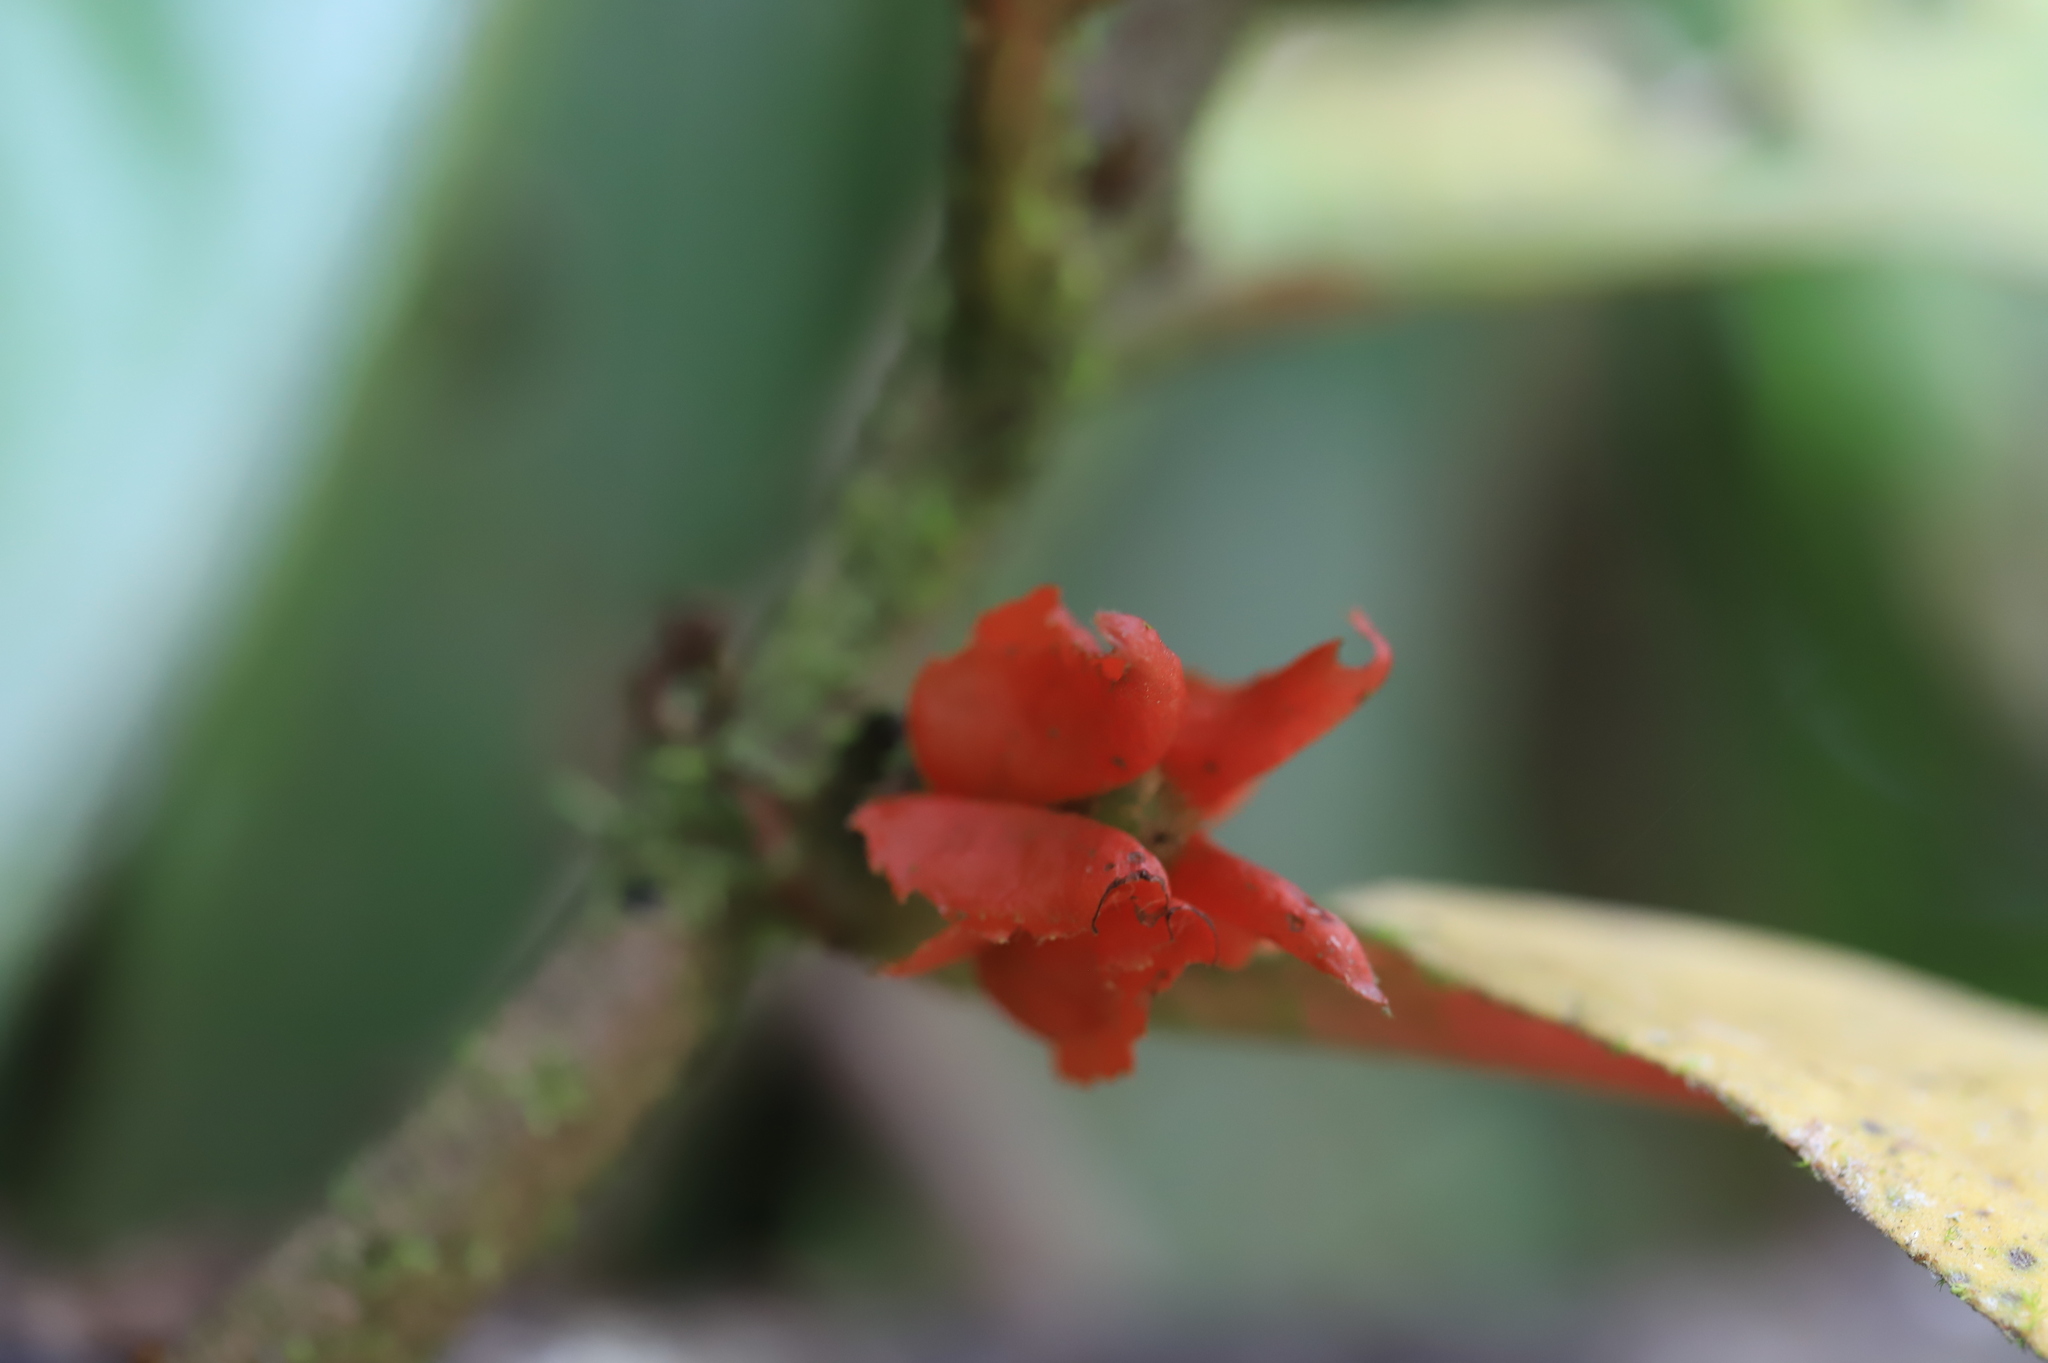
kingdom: Plantae
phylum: Tracheophyta
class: Magnoliopsida
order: Lamiales
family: Gesneriaceae
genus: Glossoloma
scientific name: Glossoloma ichthyoderma
